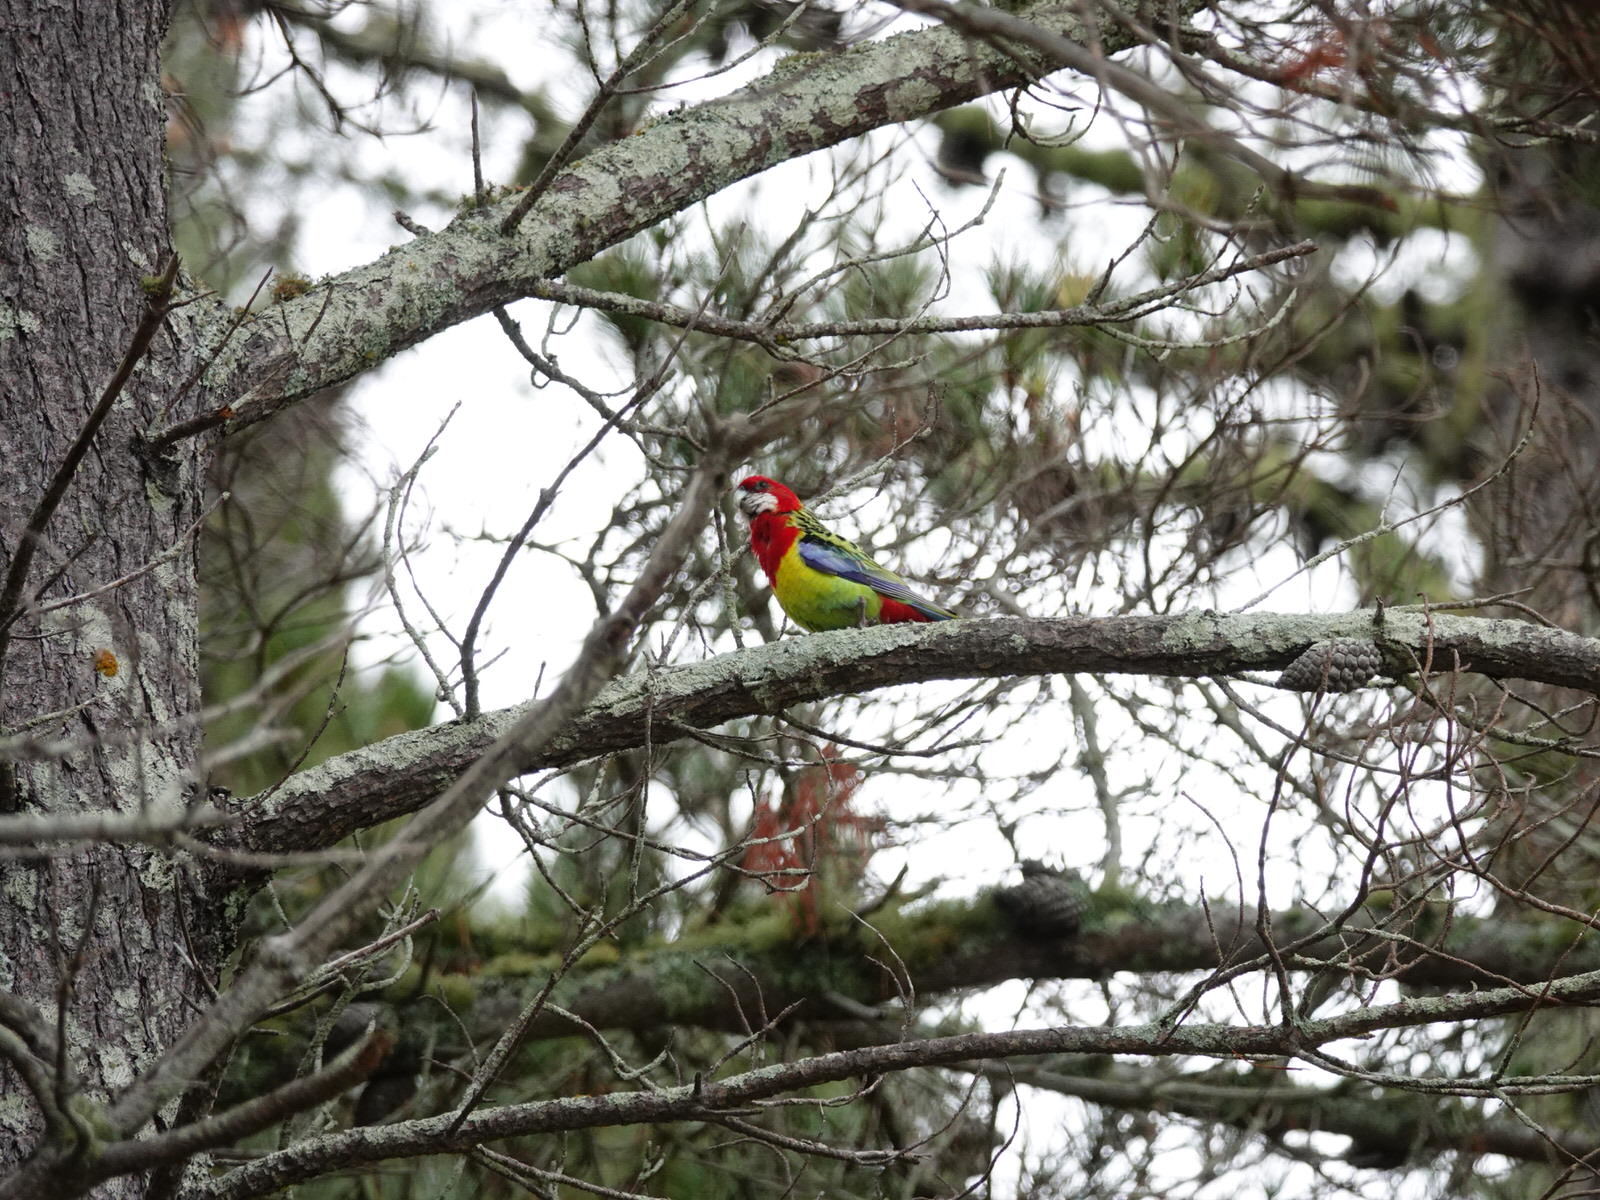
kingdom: Animalia
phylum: Chordata
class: Aves
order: Psittaciformes
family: Psittacidae
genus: Platycercus
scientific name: Platycercus eximius
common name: Eastern rosella
